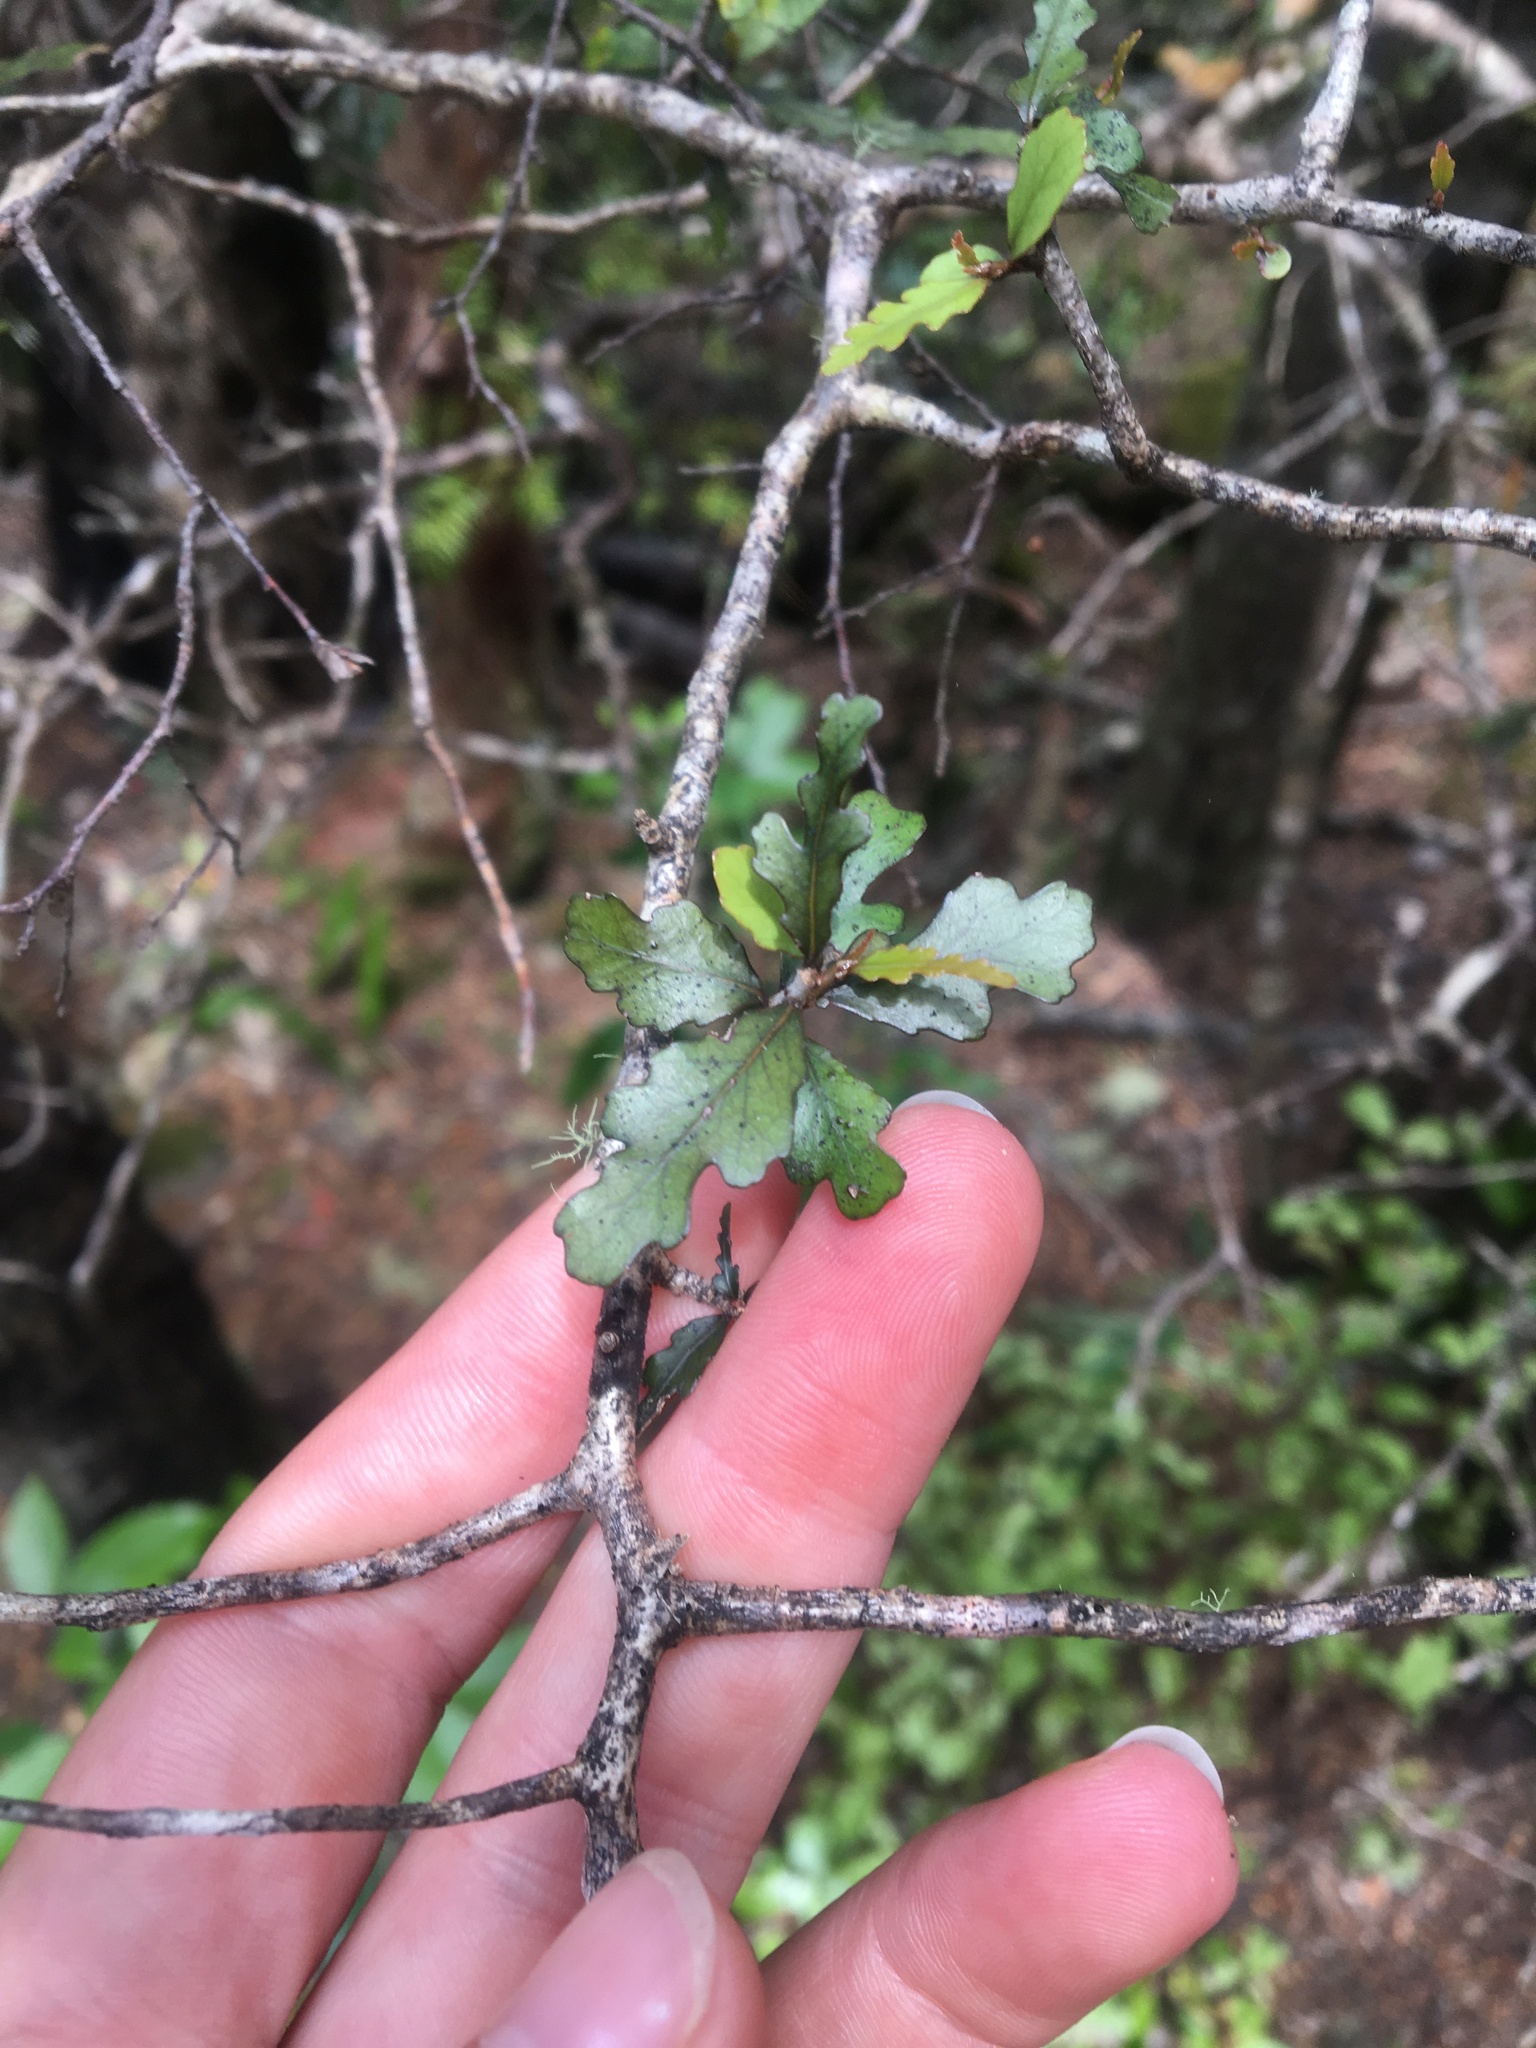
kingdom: Plantae
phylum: Tracheophyta
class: Magnoliopsida
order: Oxalidales
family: Elaeocarpaceae
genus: Elaeocarpus
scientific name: Elaeocarpus hookerianus
